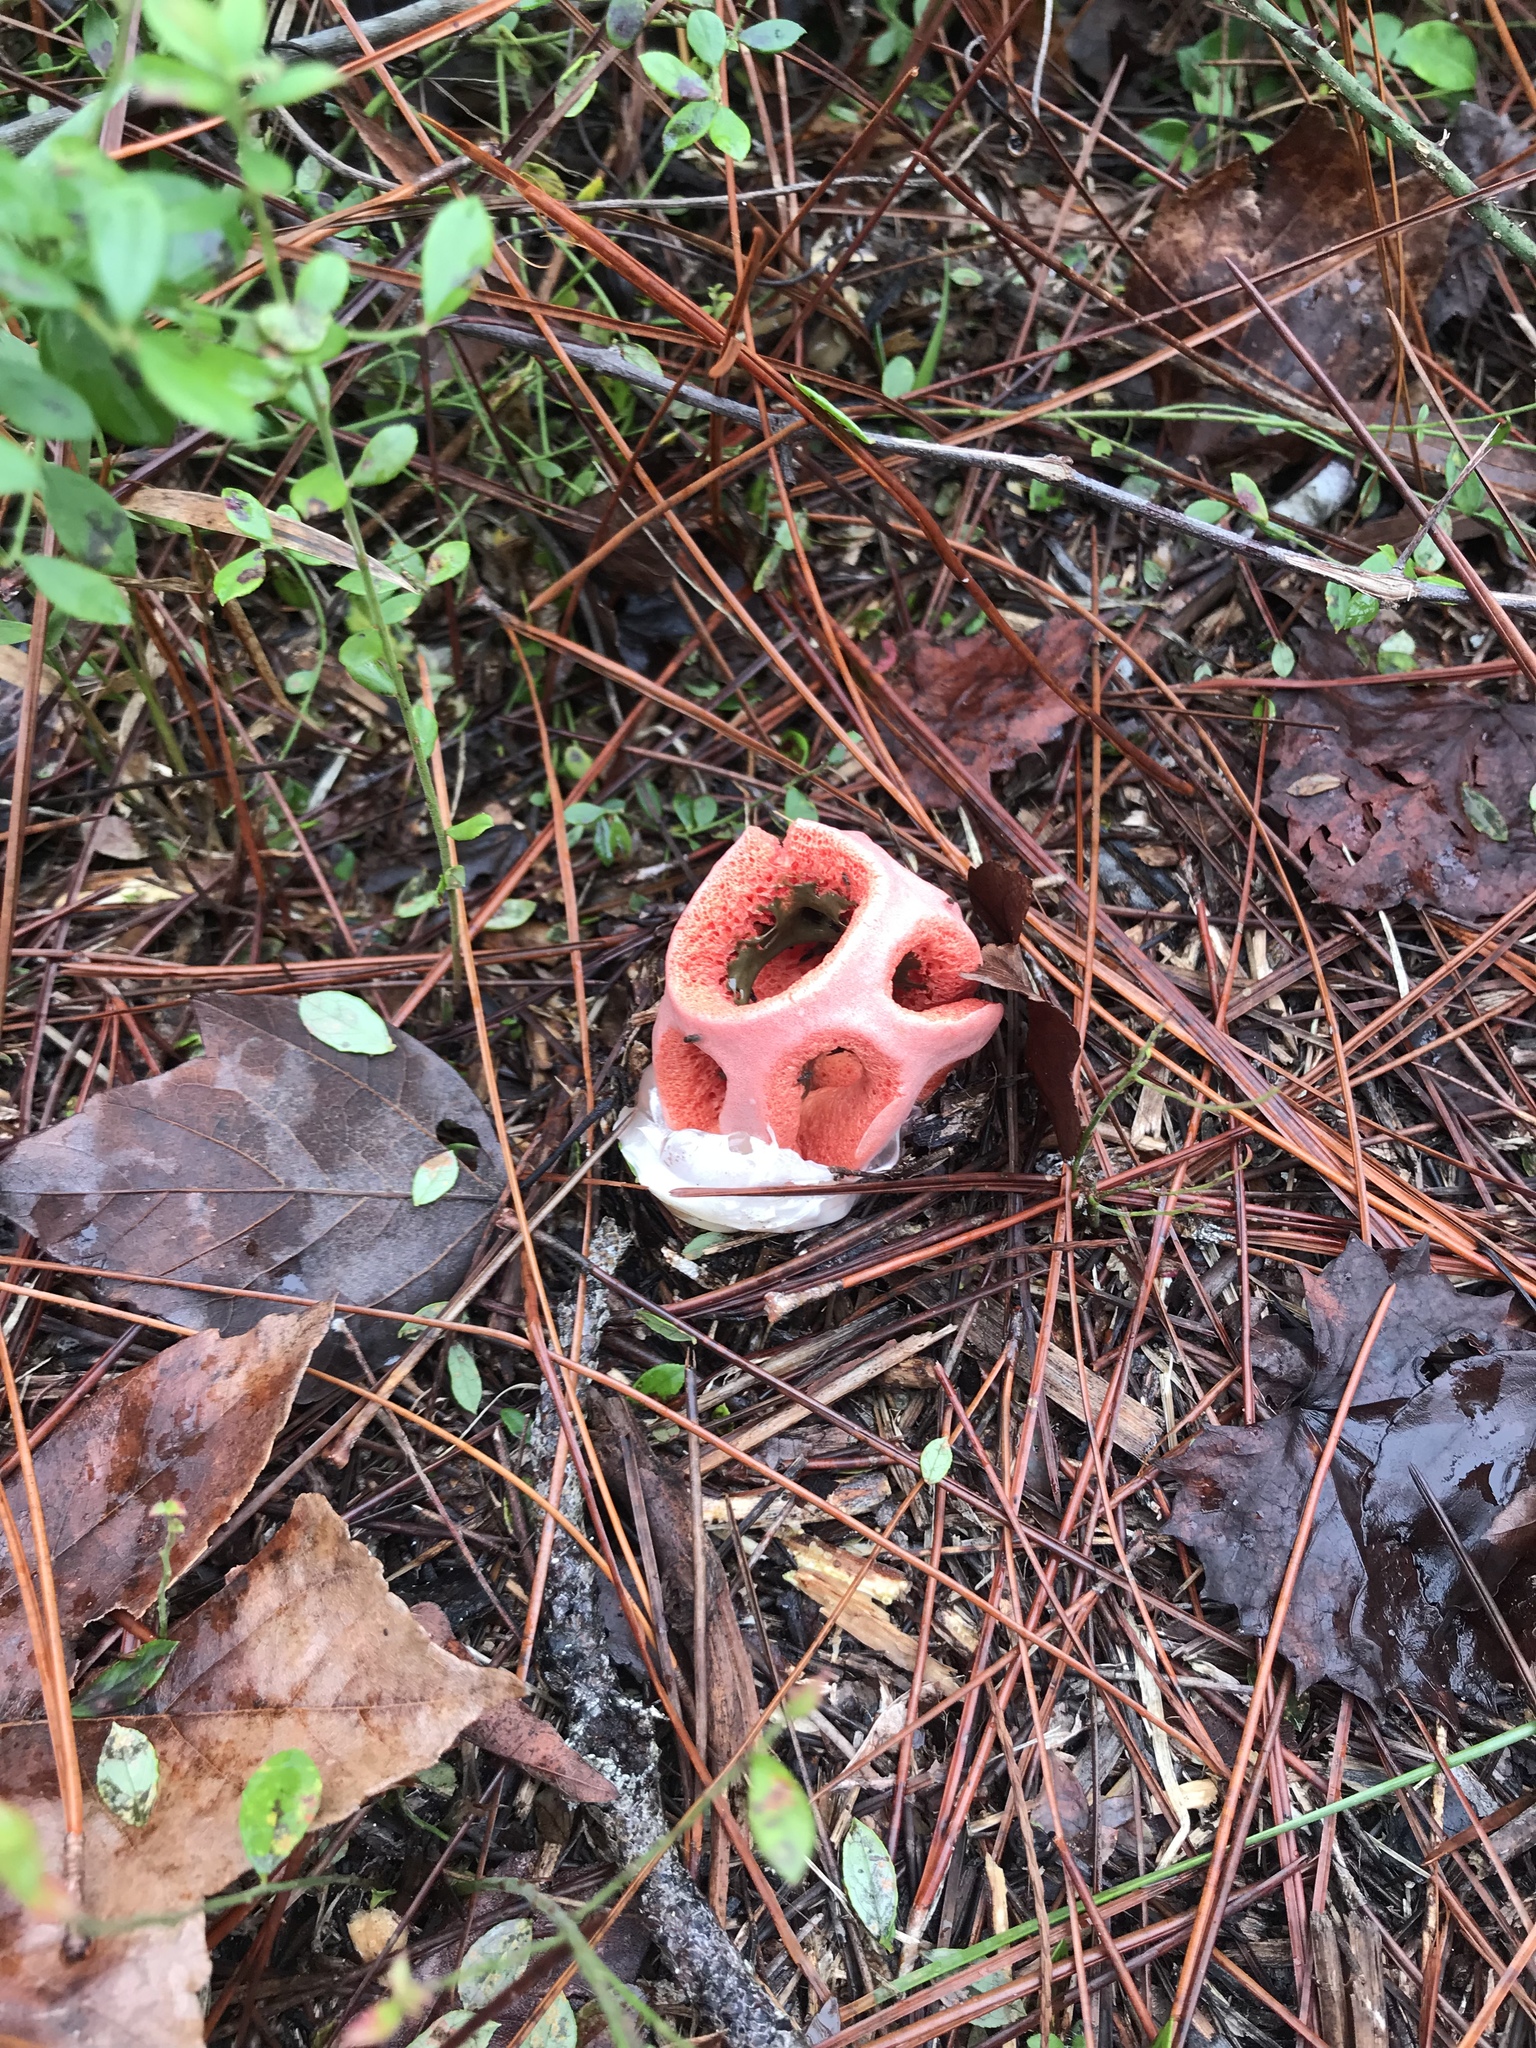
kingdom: Fungi
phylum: Basidiomycota
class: Agaricomycetes
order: Phallales
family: Phallaceae
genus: Clathrus
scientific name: Clathrus columnatus
